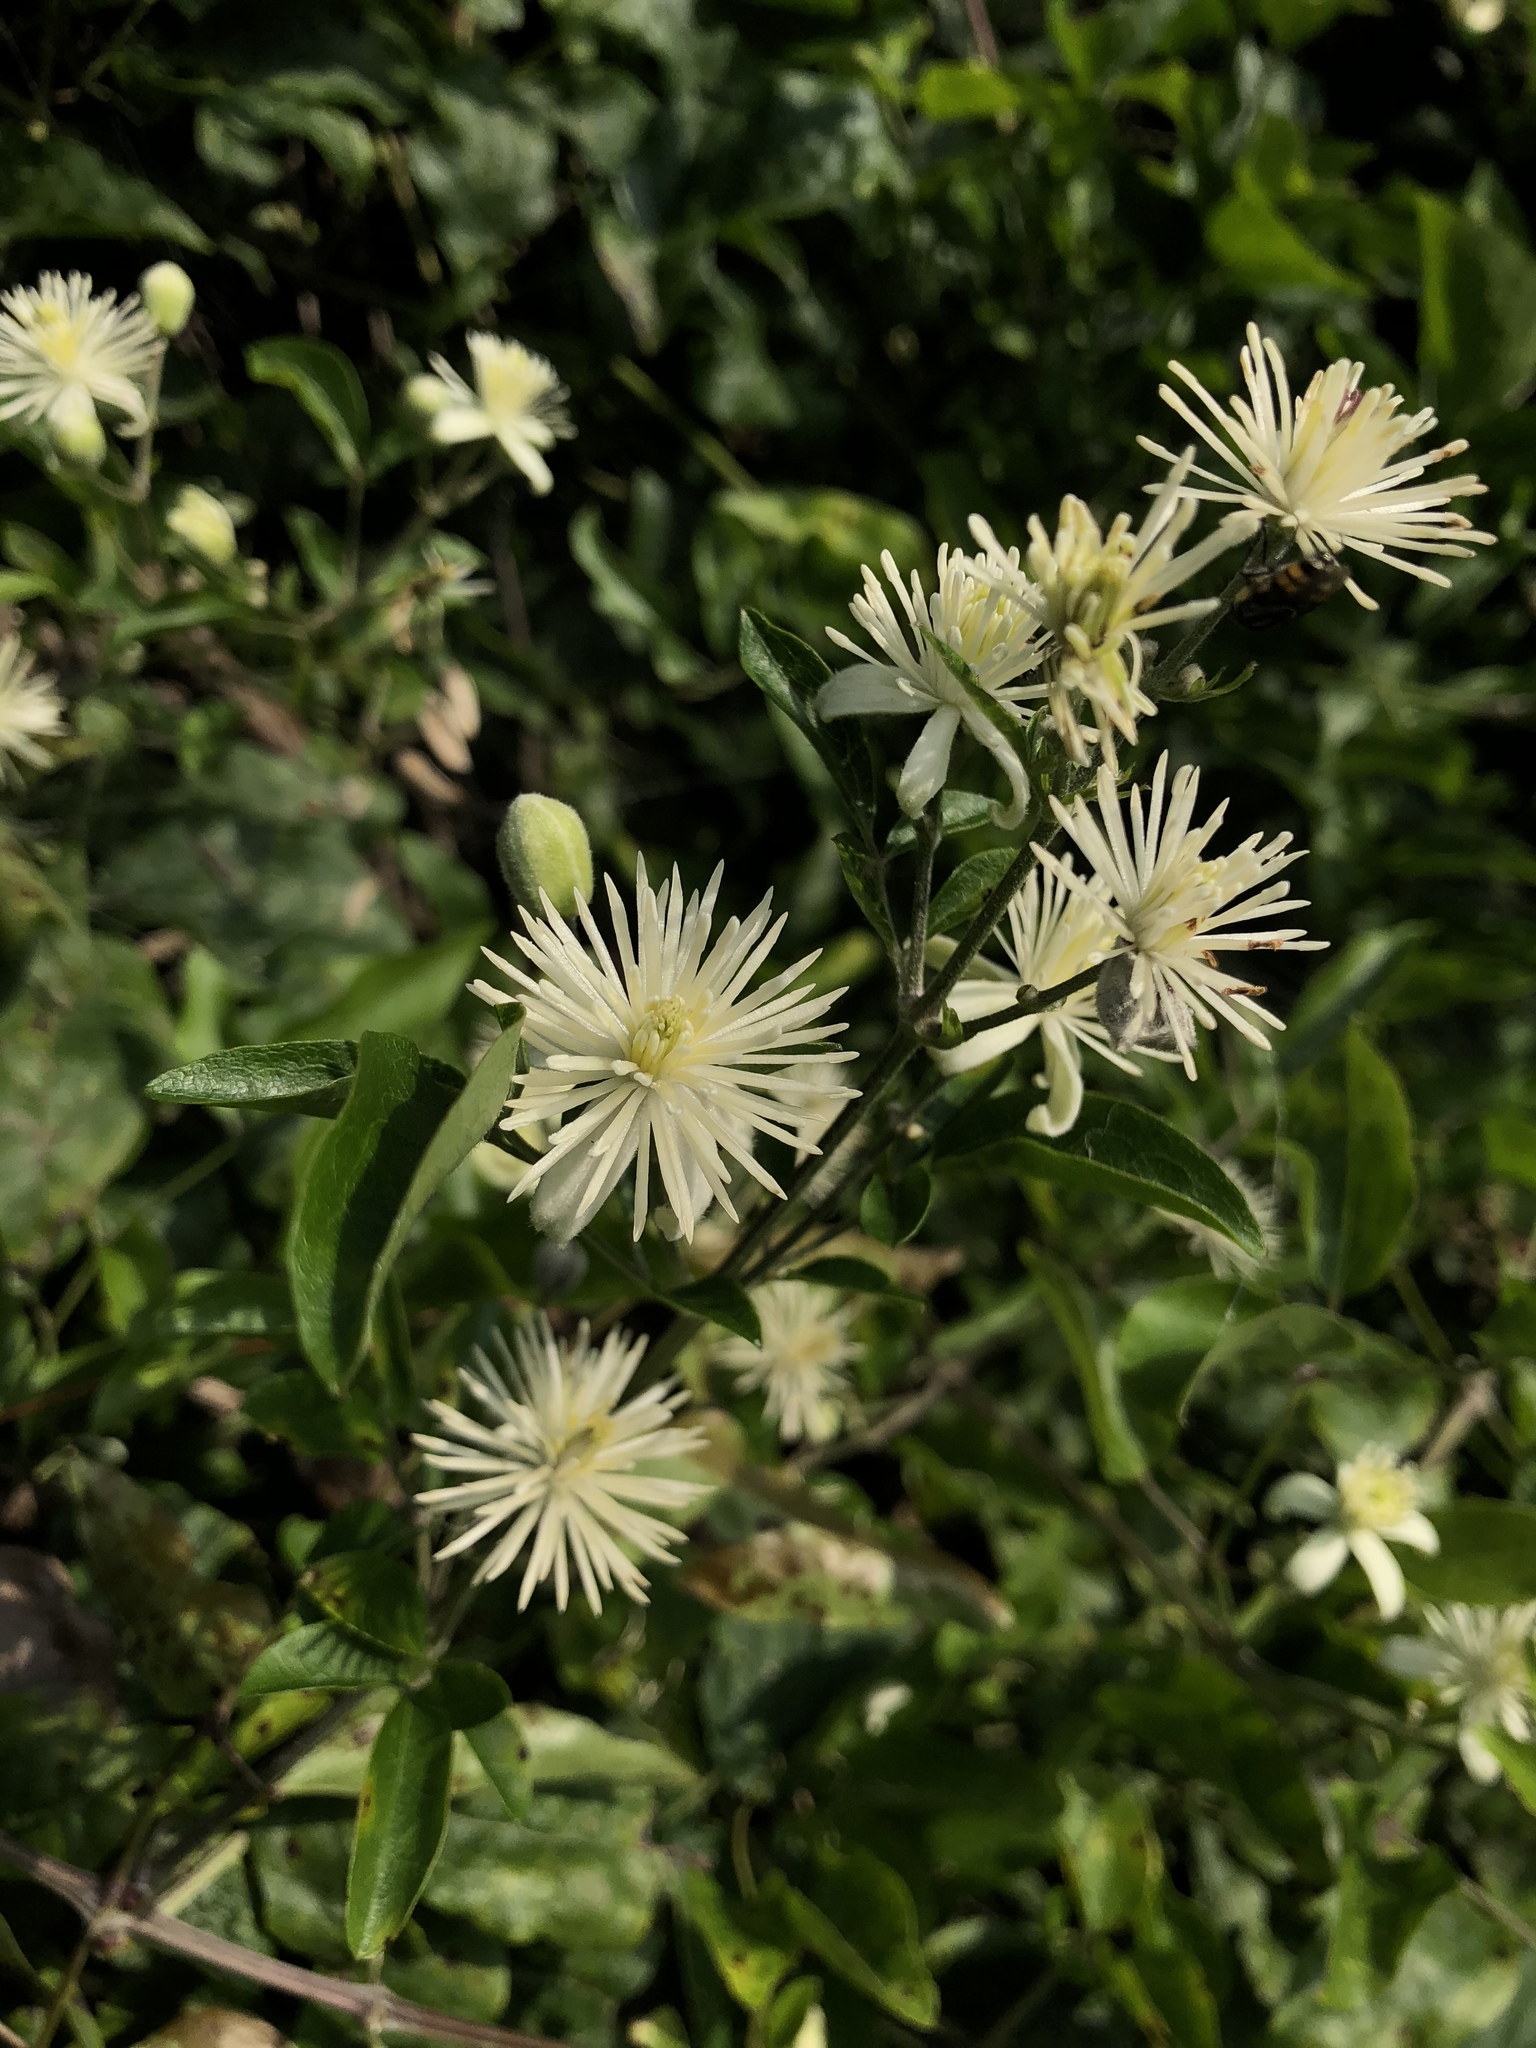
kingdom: Plantae
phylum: Tracheophyta
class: Magnoliopsida
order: Ranunculales
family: Ranunculaceae
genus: Clematis
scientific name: Clematis vitalba
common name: Evergreen clematis
